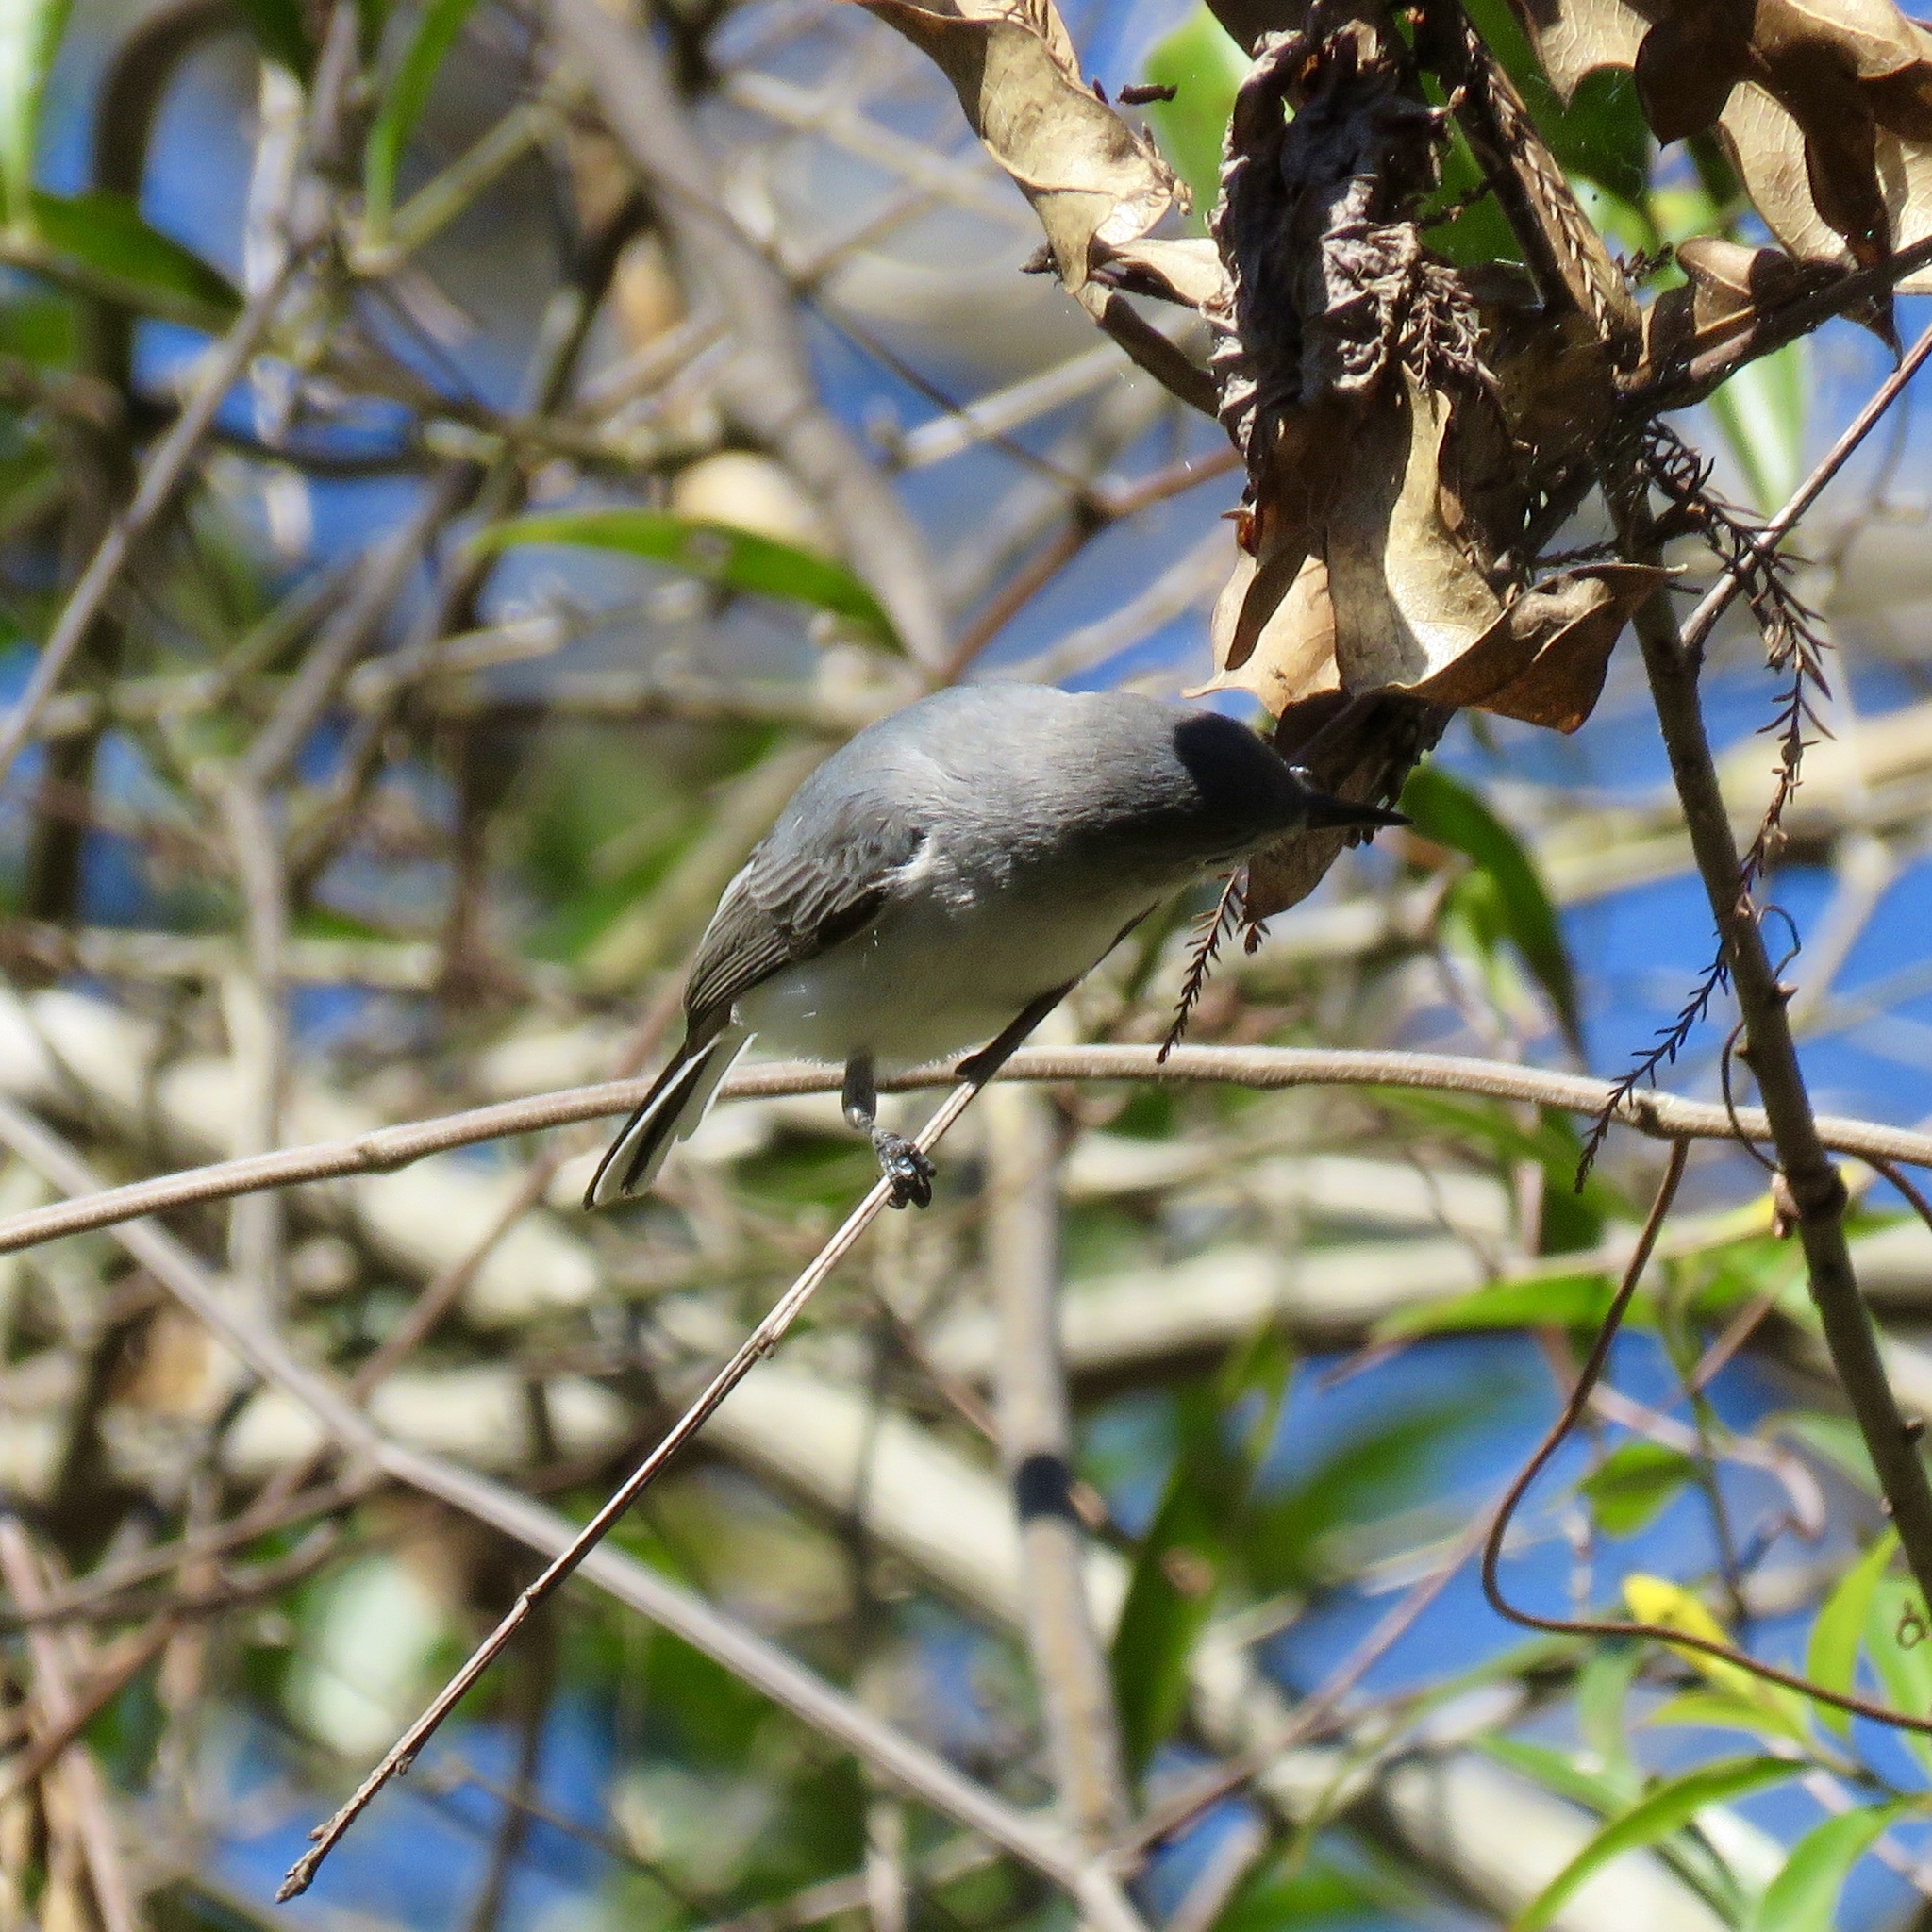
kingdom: Animalia
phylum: Chordata
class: Aves
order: Passeriformes
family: Polioptilidae
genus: Polioptila
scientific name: Polioptila caerulea
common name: Blue-gray gnatcatcher
